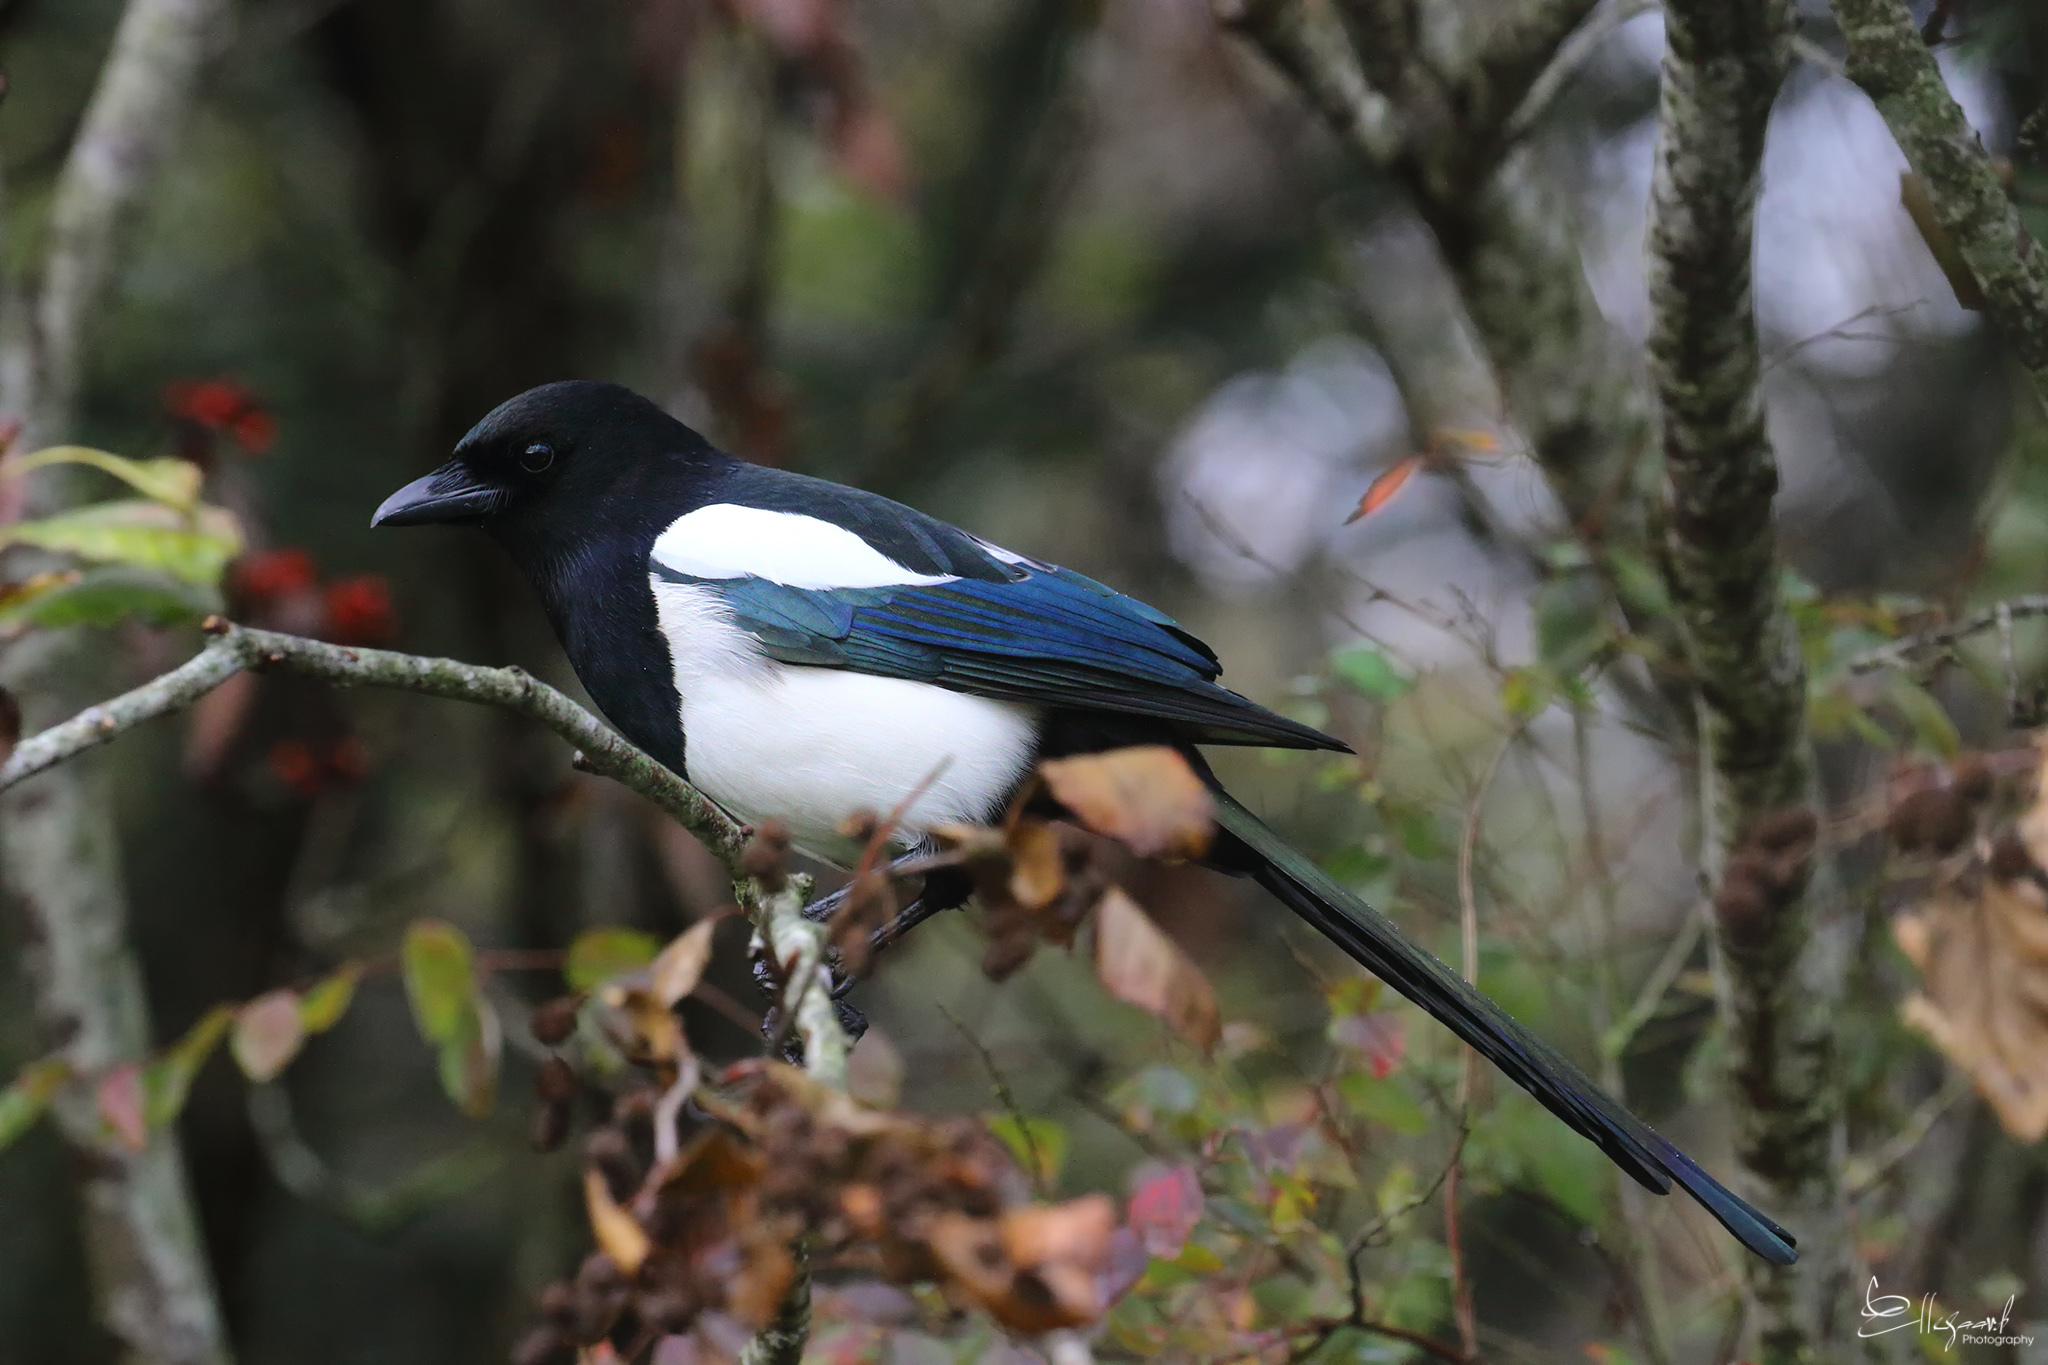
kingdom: Animalia
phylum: Chordata
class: Aves
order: Passeriformes
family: Corvidae
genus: Pica
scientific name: Pica pica
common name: Eurasian magpie
